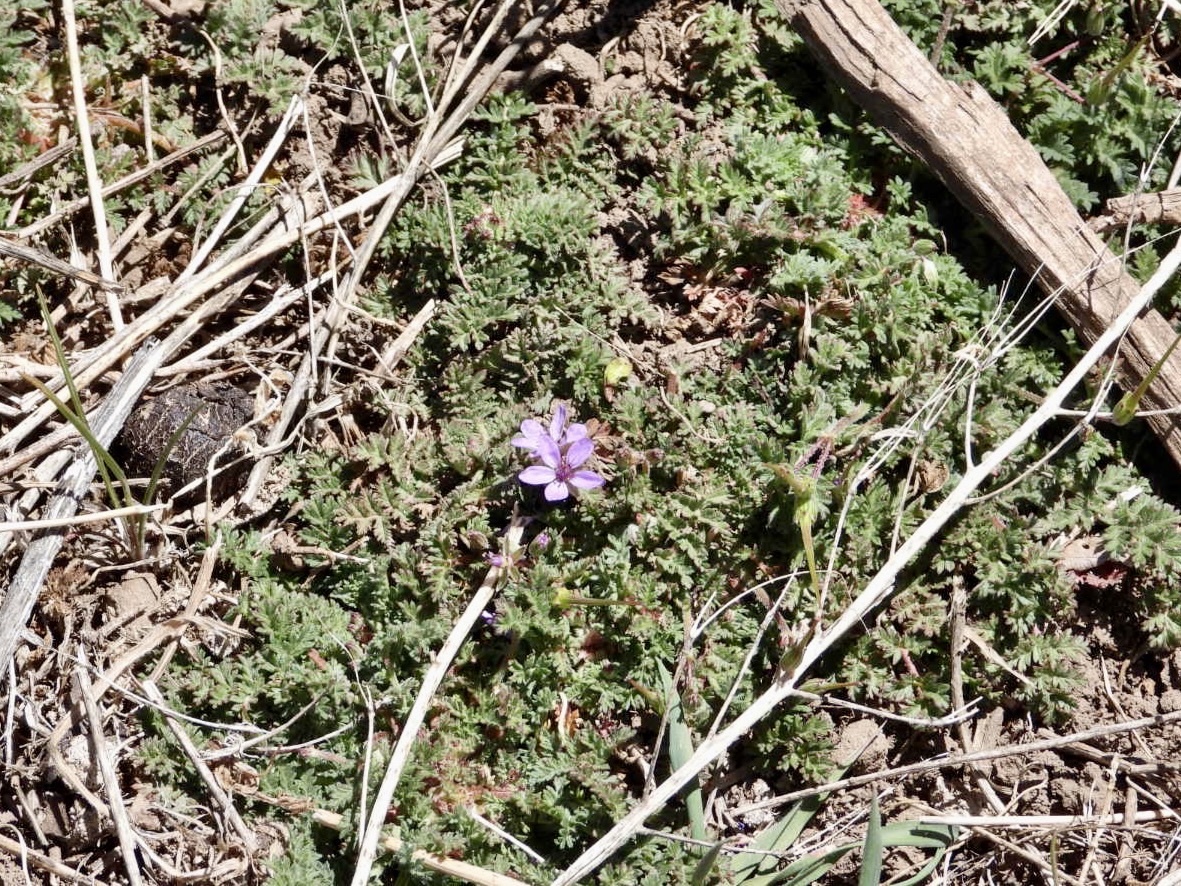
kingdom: Plantae
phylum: Tracheophyta
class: Magnoliopsida
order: Geraniales
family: Geraniaceae
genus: Erodium
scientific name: Erodium cicutarium
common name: Common stork's-bill
